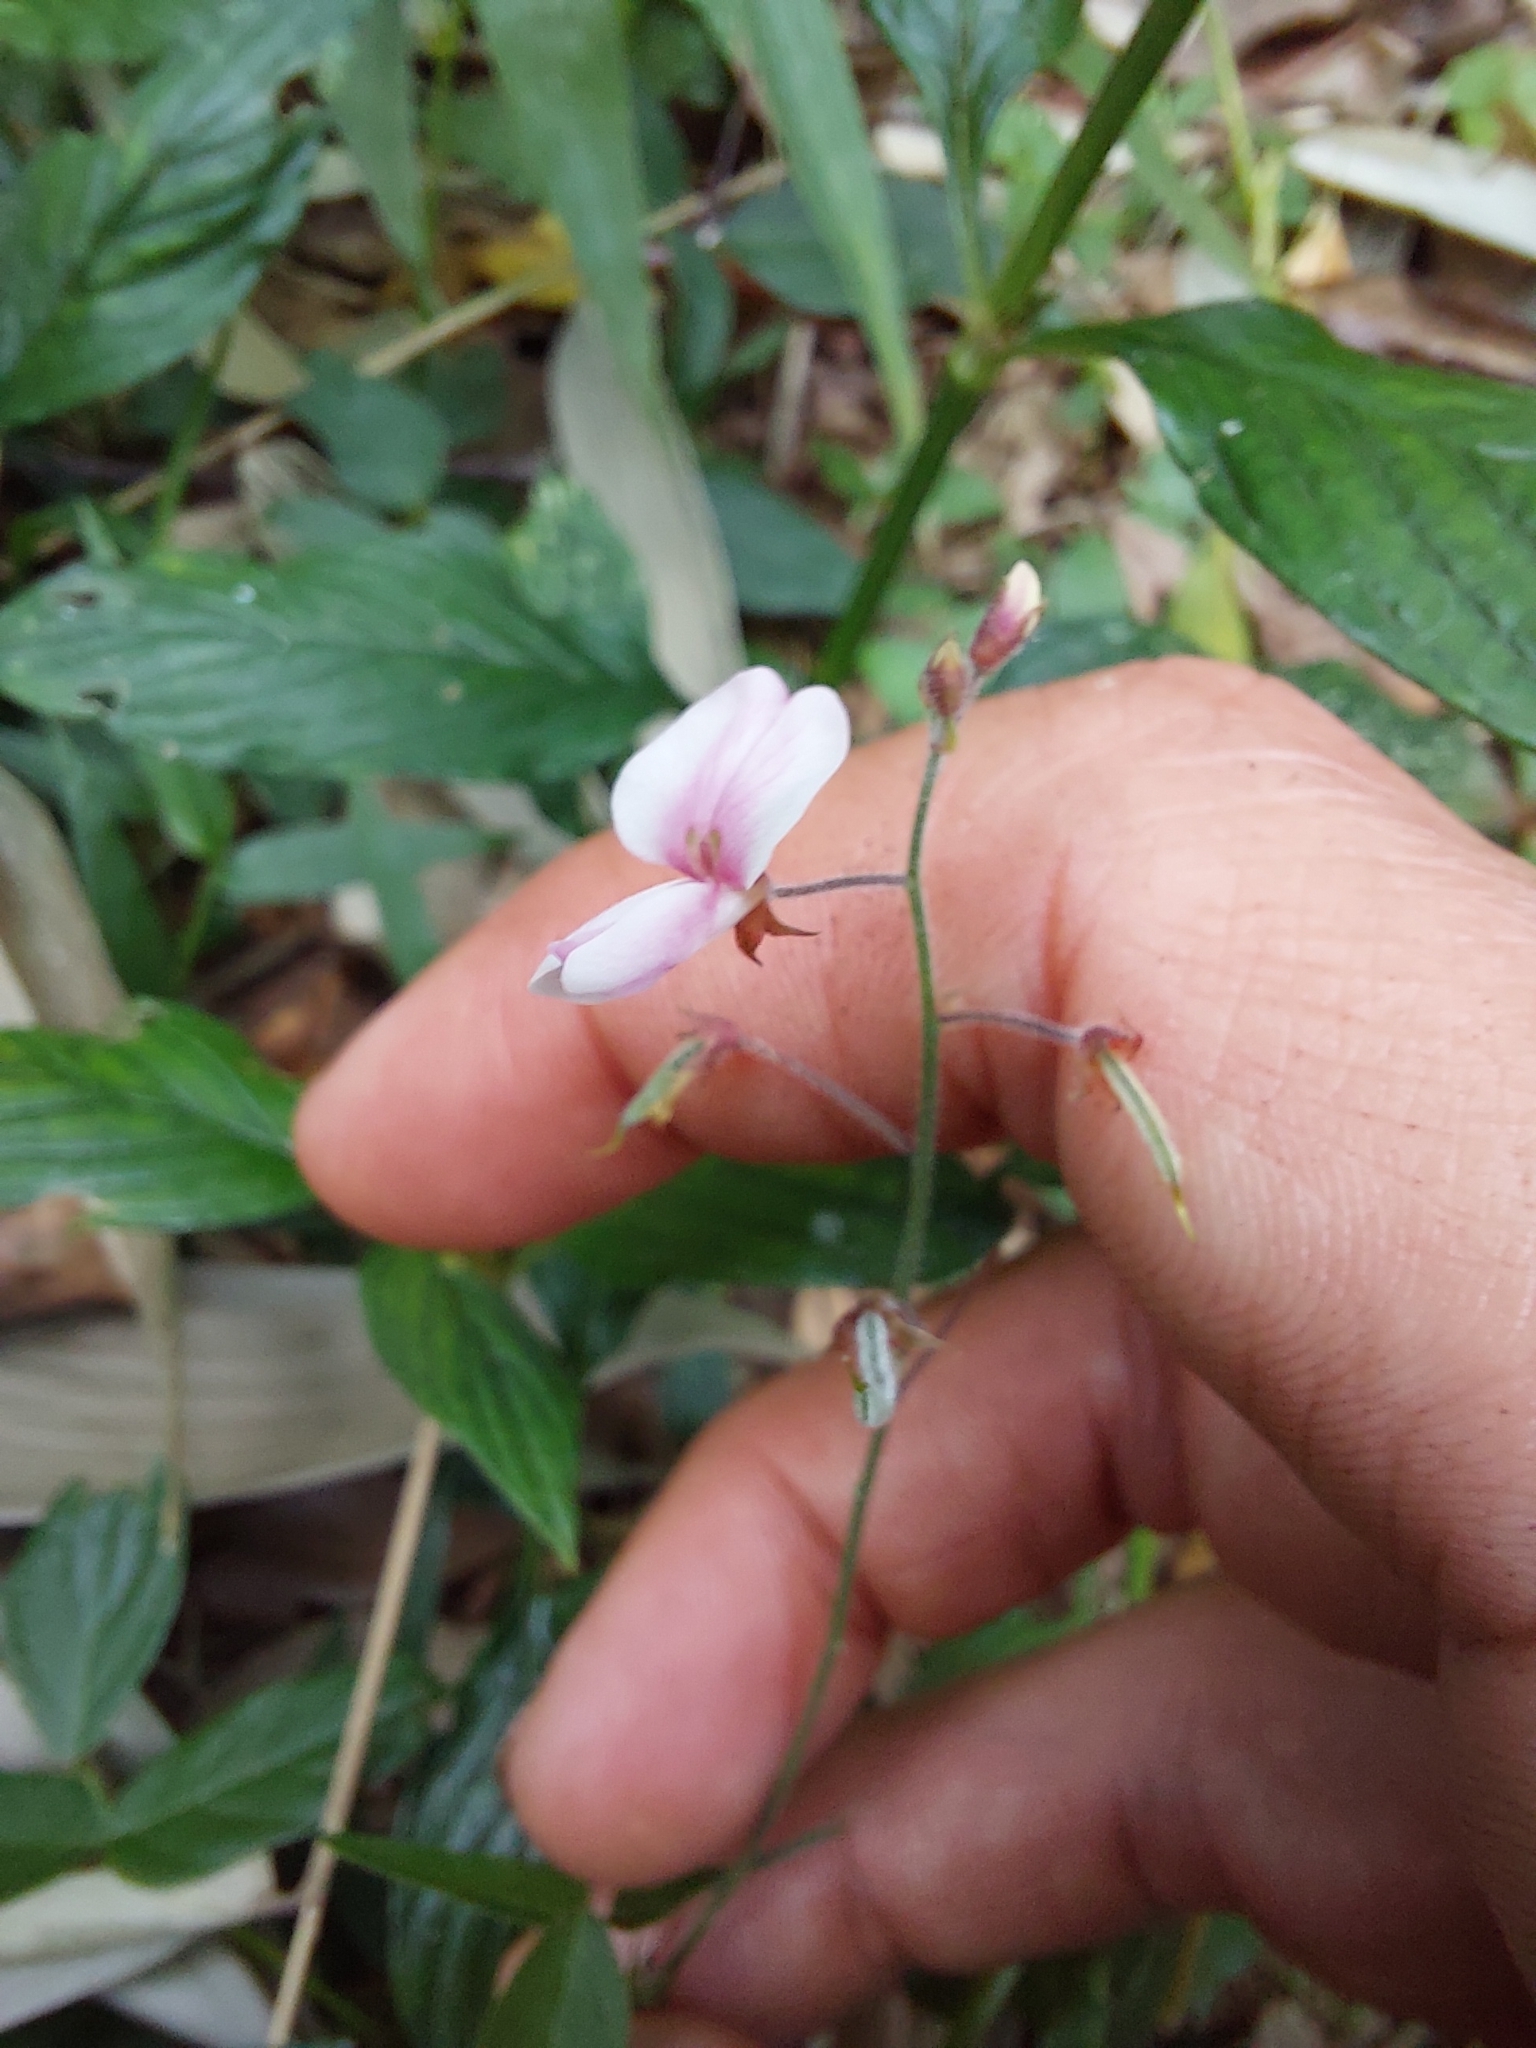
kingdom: Plantae
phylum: Tracheophyta
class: Magnoliopsida
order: Fabales
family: Fabaceae
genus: Desmodium
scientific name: Desmodium affine
